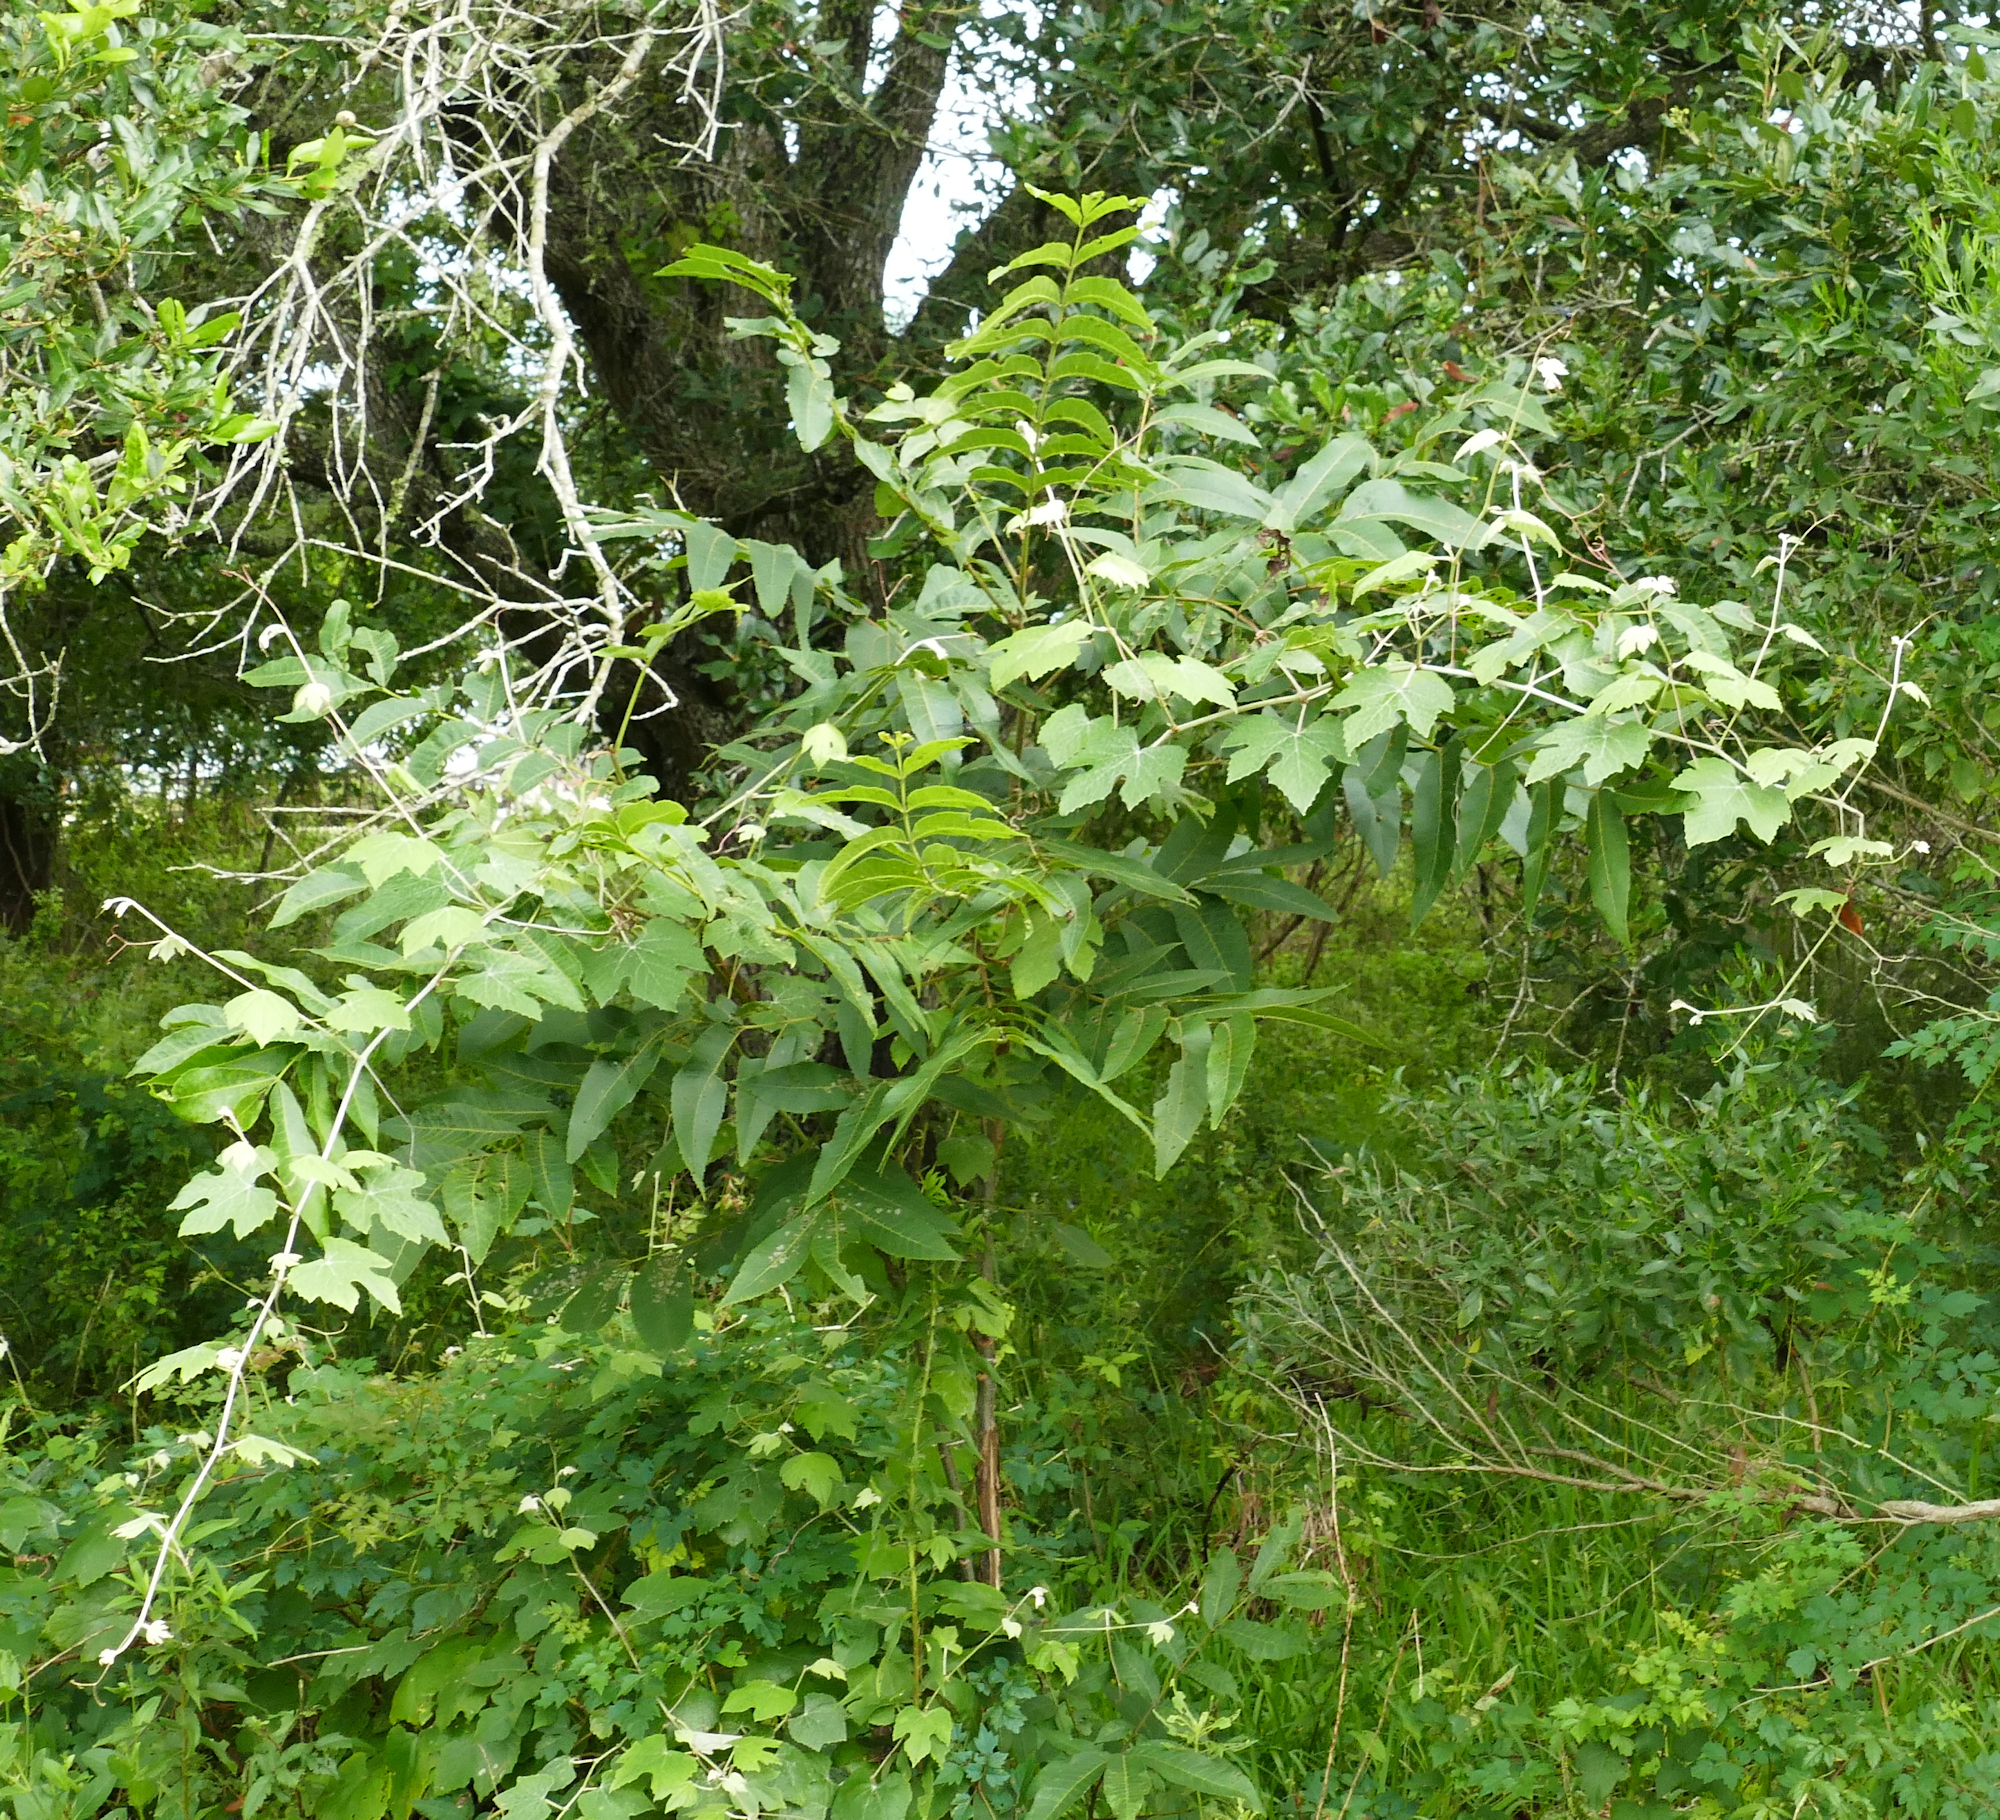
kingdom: Plantae
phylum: Tracheophyta
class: Magnoliopsida
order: Vitales
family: Vitaceae
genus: Vitis
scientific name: Vitis mustangensis
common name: Mustang grape
